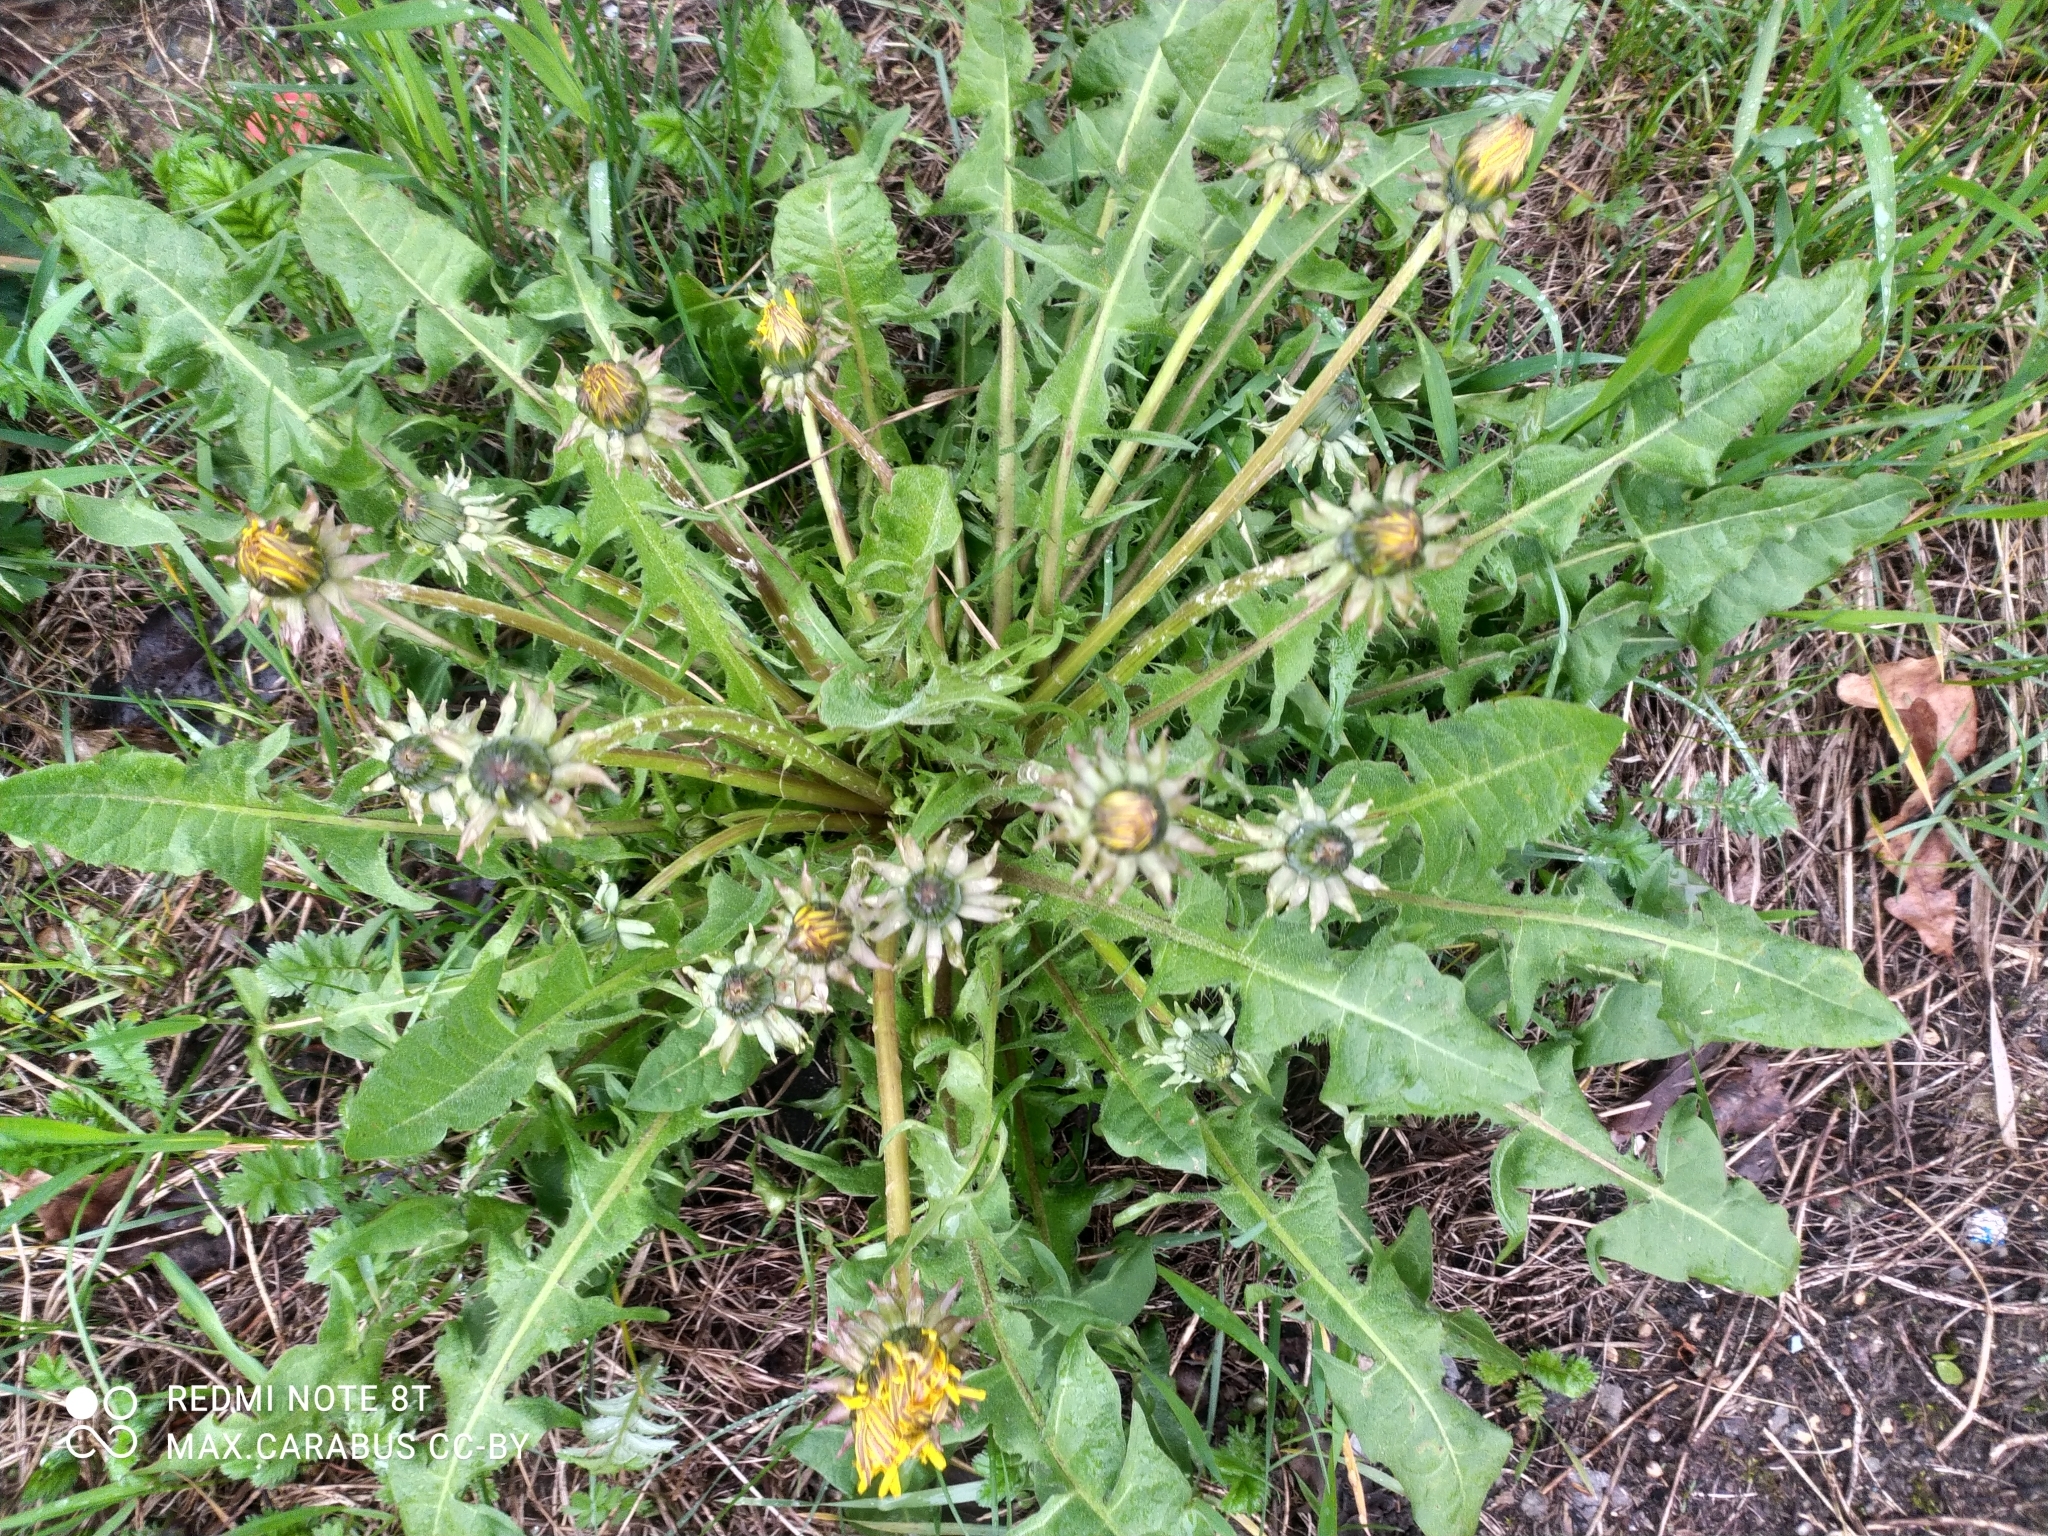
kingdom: Plantae
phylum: Tracheophyta
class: Magnoliopsida
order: Asterales
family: Asteraceae
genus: Taraxacum
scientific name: Taraxacum officinale
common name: Common dandelion
